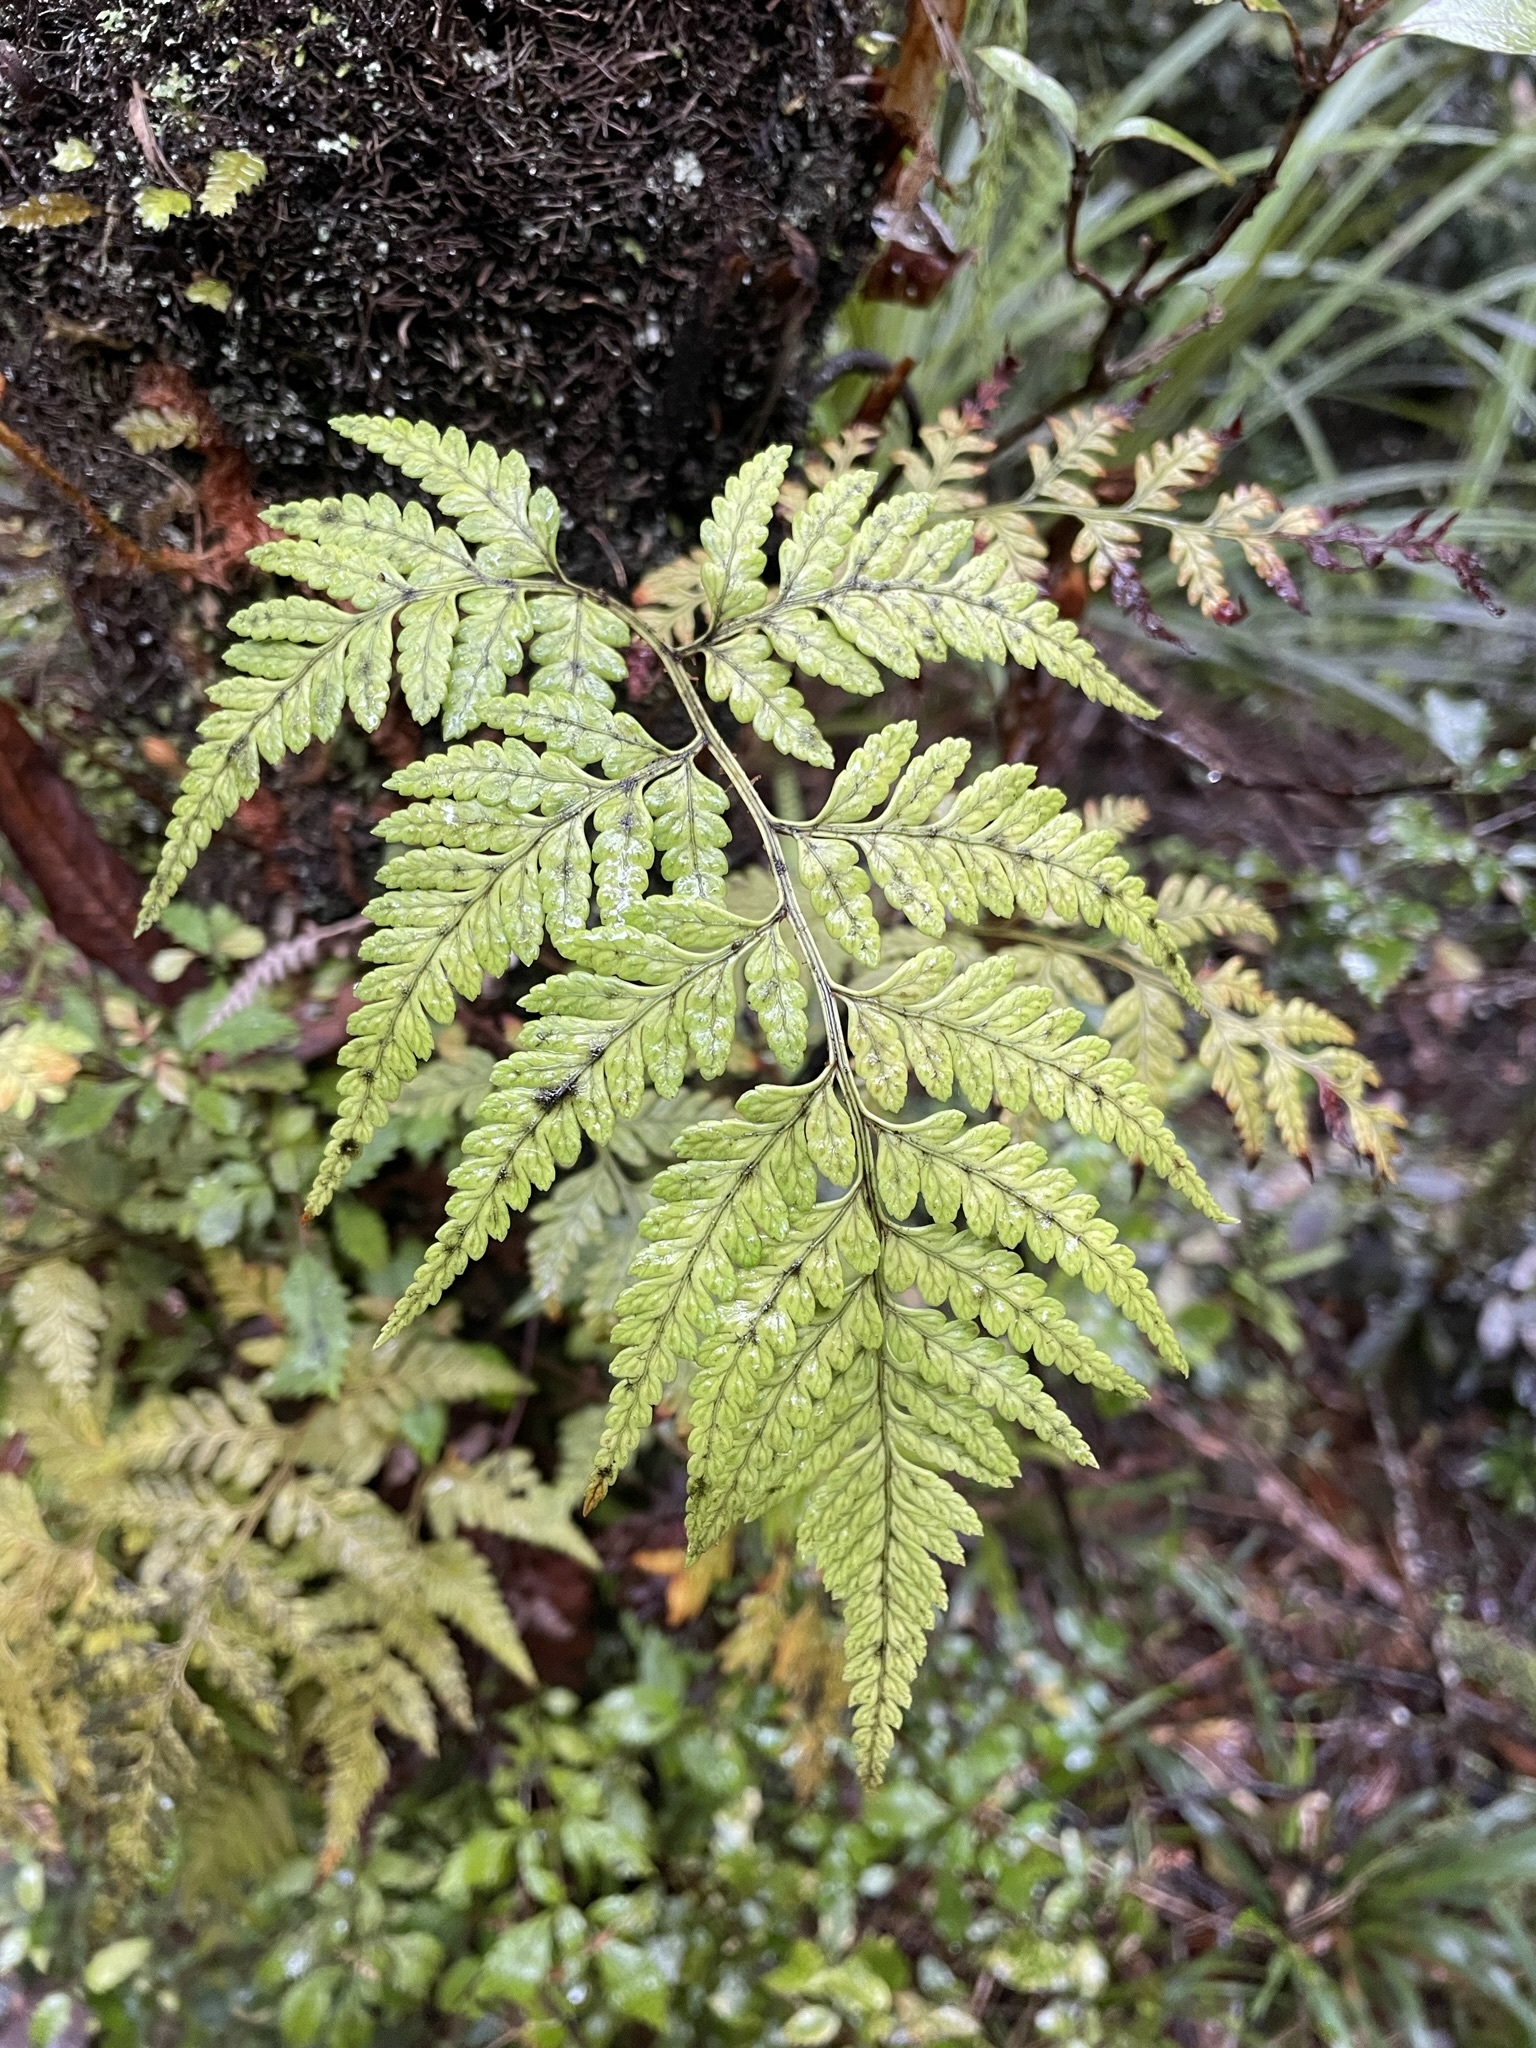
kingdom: Plantae
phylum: Tracheophyta
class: Polypodiopsida
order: Polypodiales
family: Dryopteridaceae
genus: Rumohra
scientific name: Rumohra adiantiformis
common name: Leather fern
